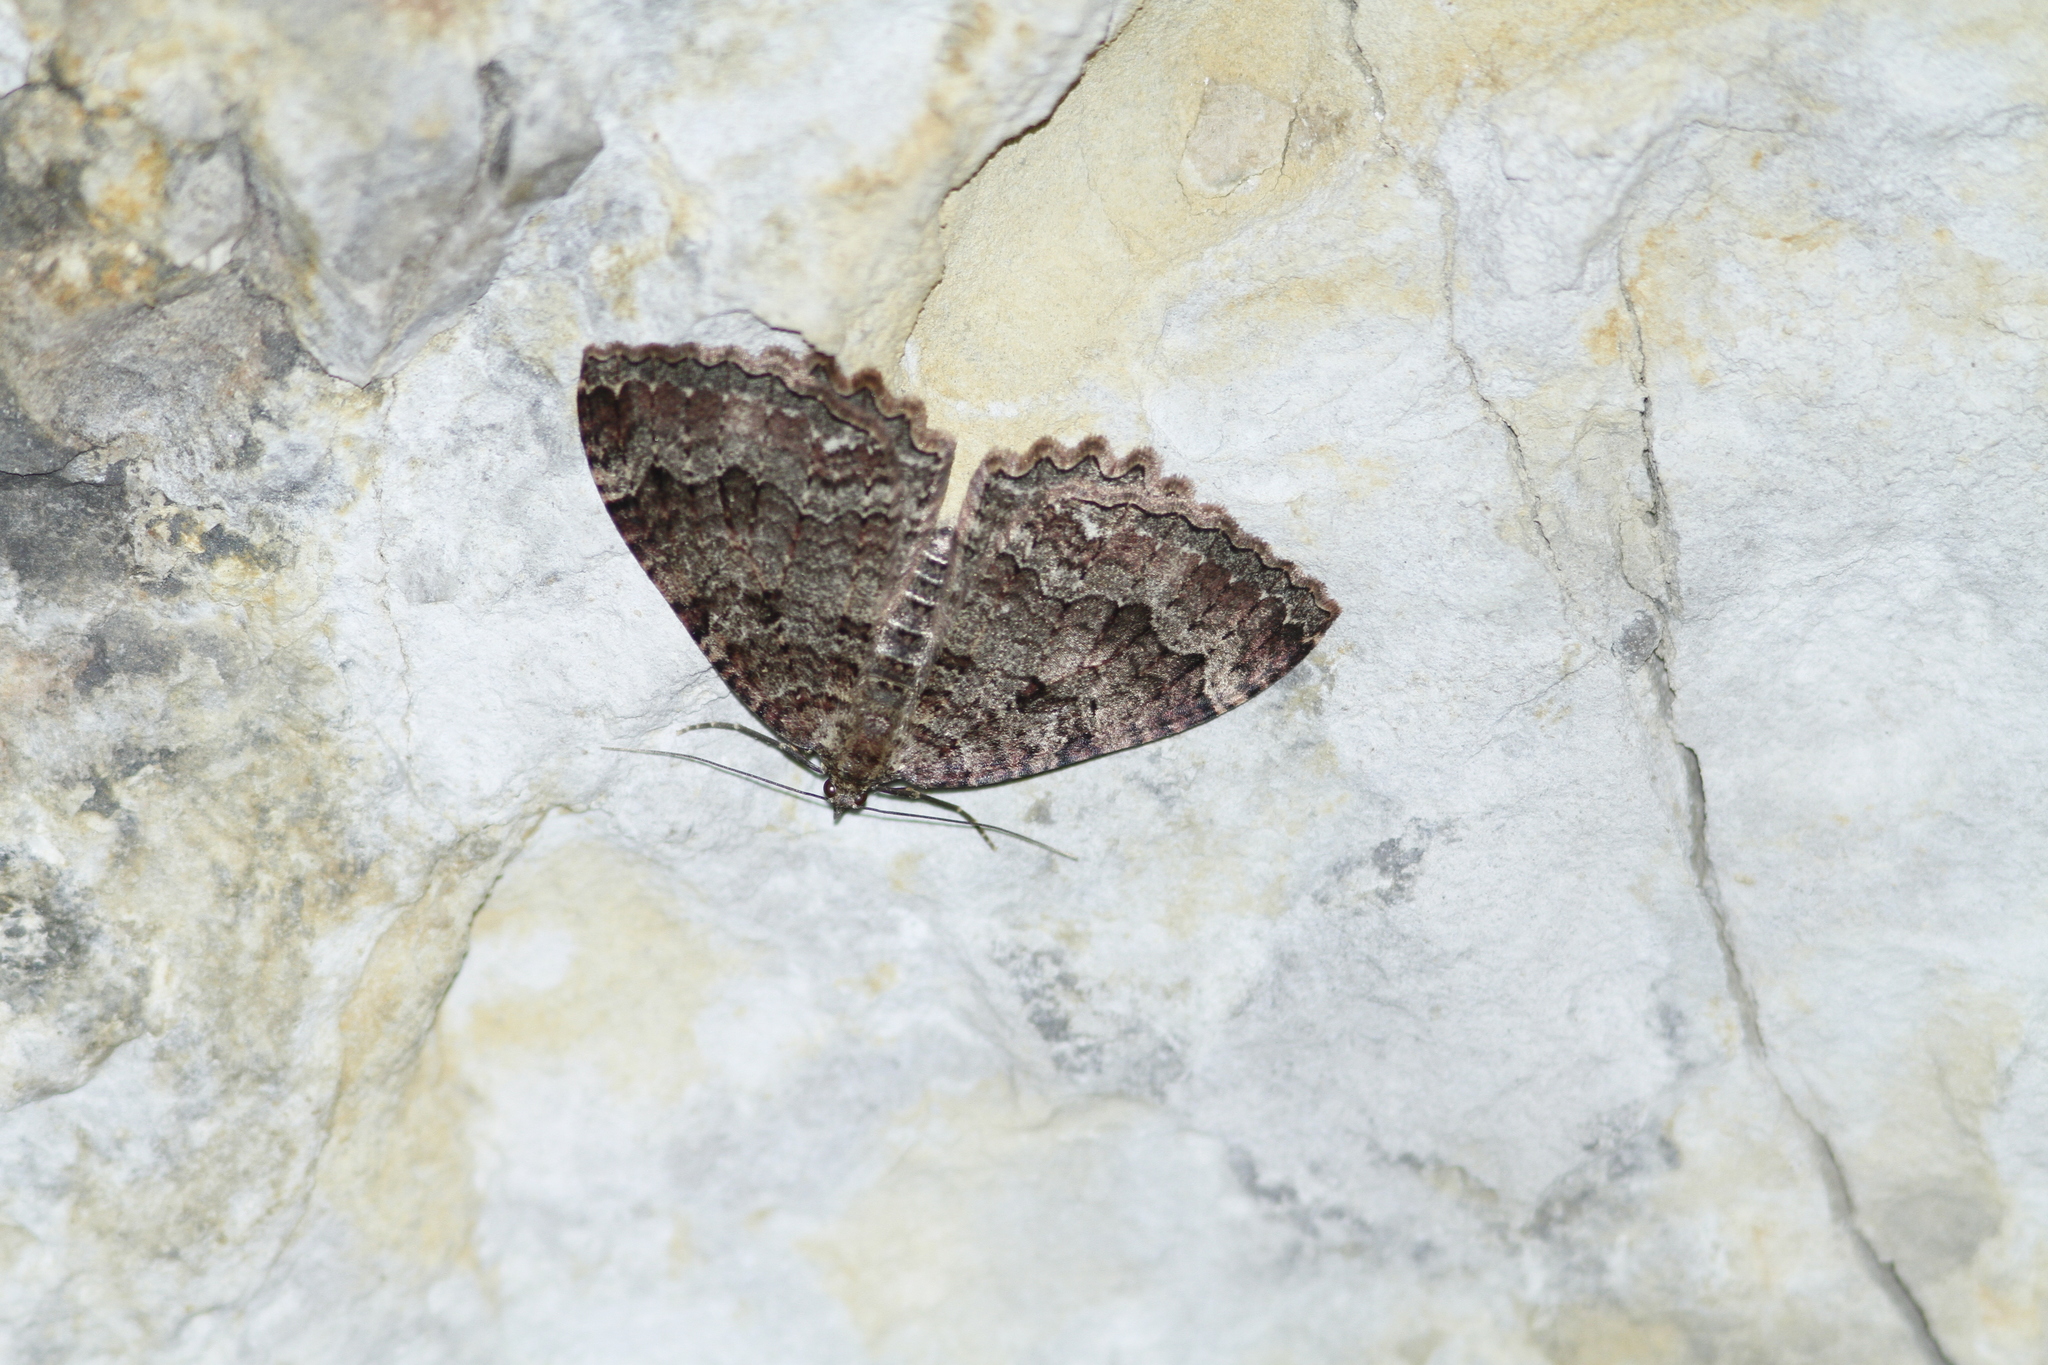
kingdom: Animalia
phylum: Arthropoda
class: Insecta
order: Lepidoptera
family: Geometridae
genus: Triphosa
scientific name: Triphosa dubitata
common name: Tissue
